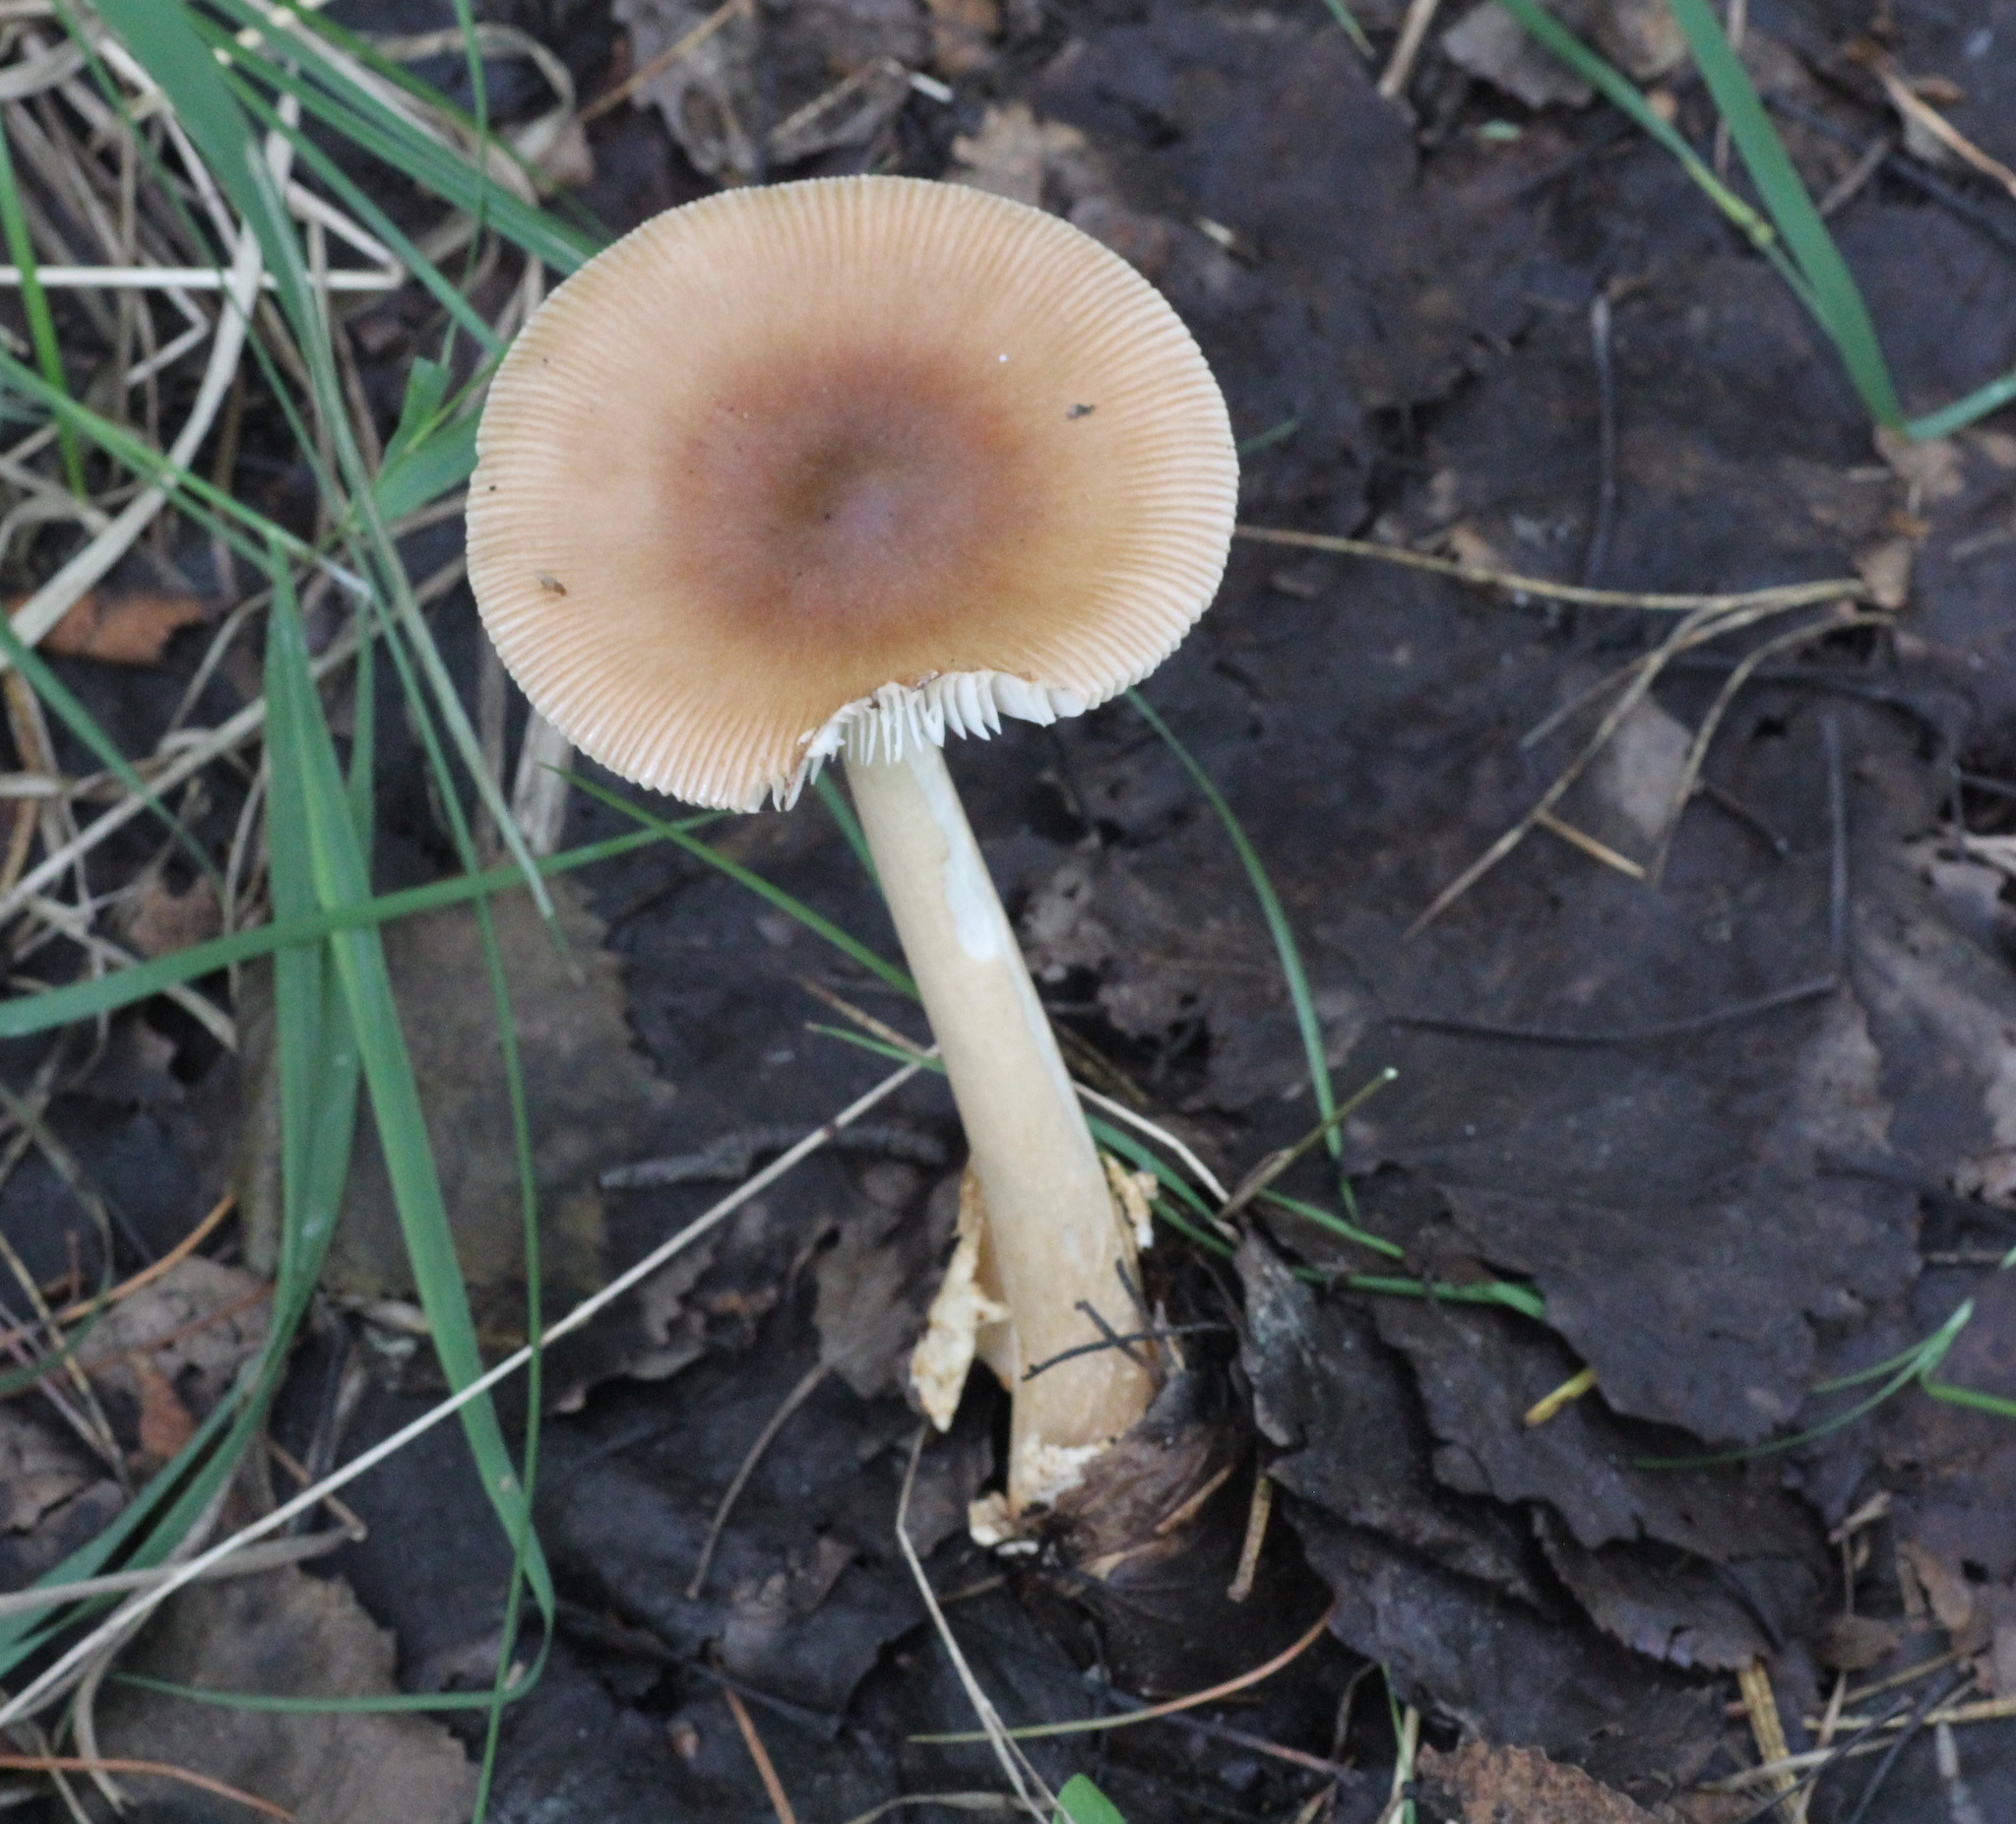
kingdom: Fungi
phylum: Basidiomycota
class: Agaricomycetes
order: Agaricales
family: Amanitaceae
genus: Amanita
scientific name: Amanita fulva
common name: Tawny grisette
